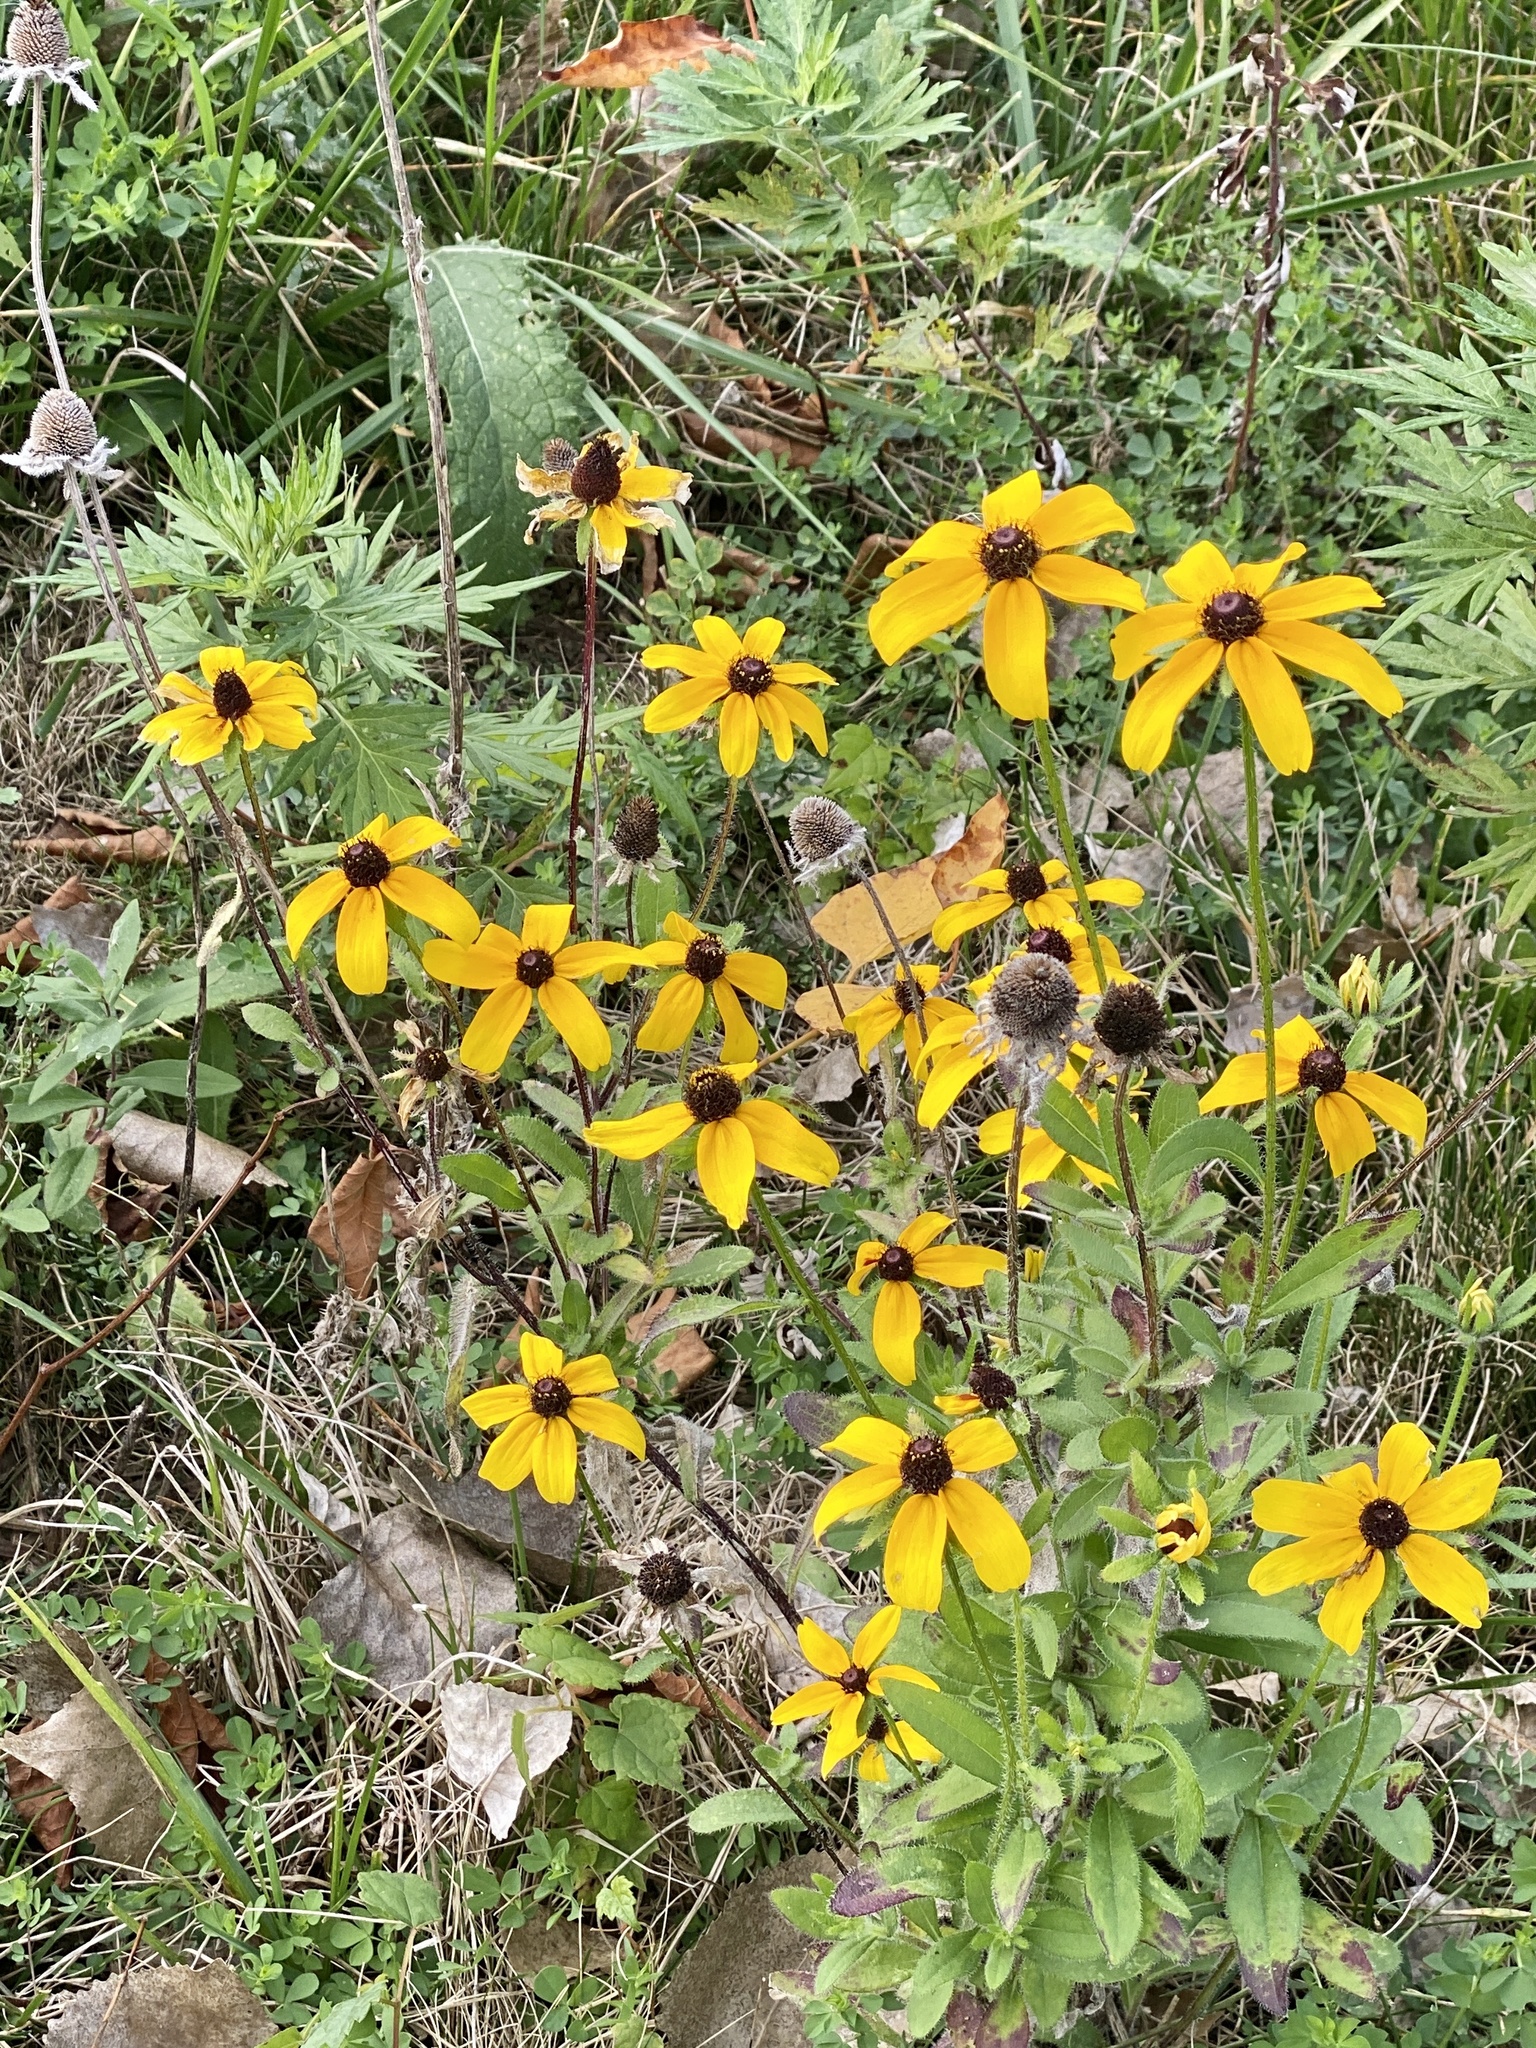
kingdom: Plantae
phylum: Tracheophyta
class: Magnoliopsida
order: Asterales
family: Asteraceae
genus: Rudbeckia
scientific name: Rudbeckia hirta
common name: Black-eyed-susan
